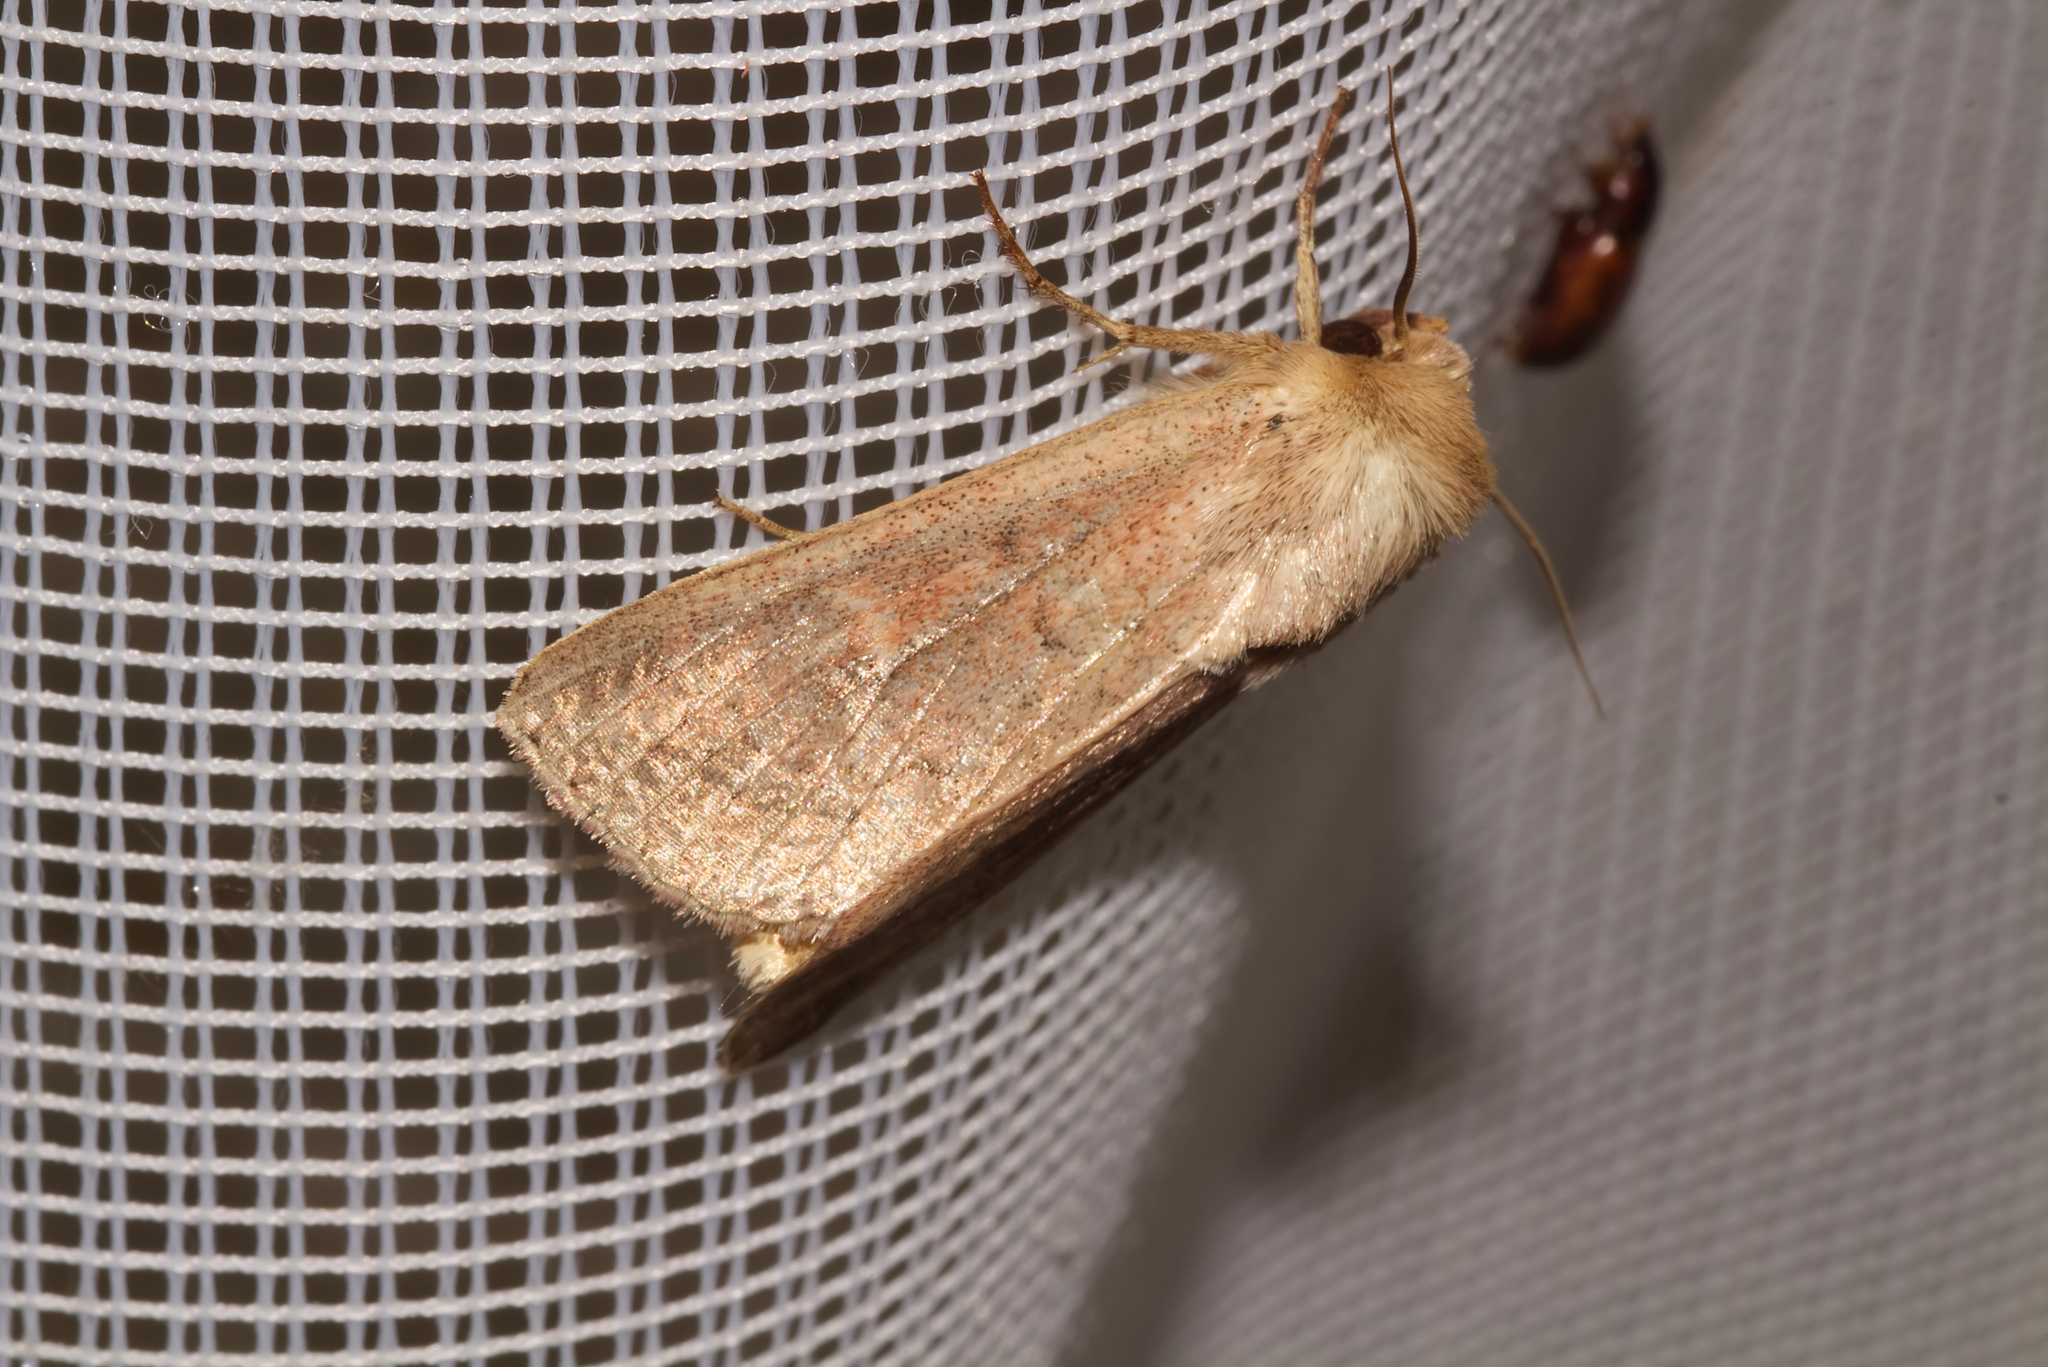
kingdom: Animalia
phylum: Arthropoda
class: Insecta
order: Lepidoptera
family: Noctuidae
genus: Mythimna
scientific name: Mythimna ferrago
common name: Clay
